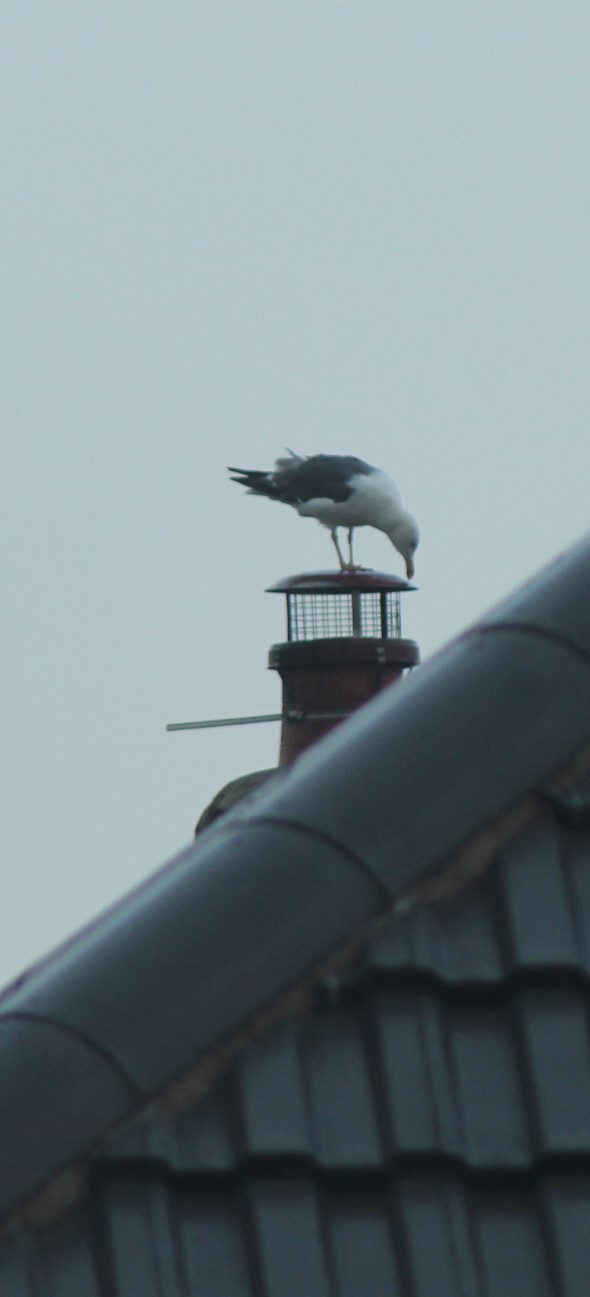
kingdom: Animalia
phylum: Chordata
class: Aves
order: Charadriiformes
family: Laridae
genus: Larus
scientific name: Larus fuscus
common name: Lesser black-backed gull
